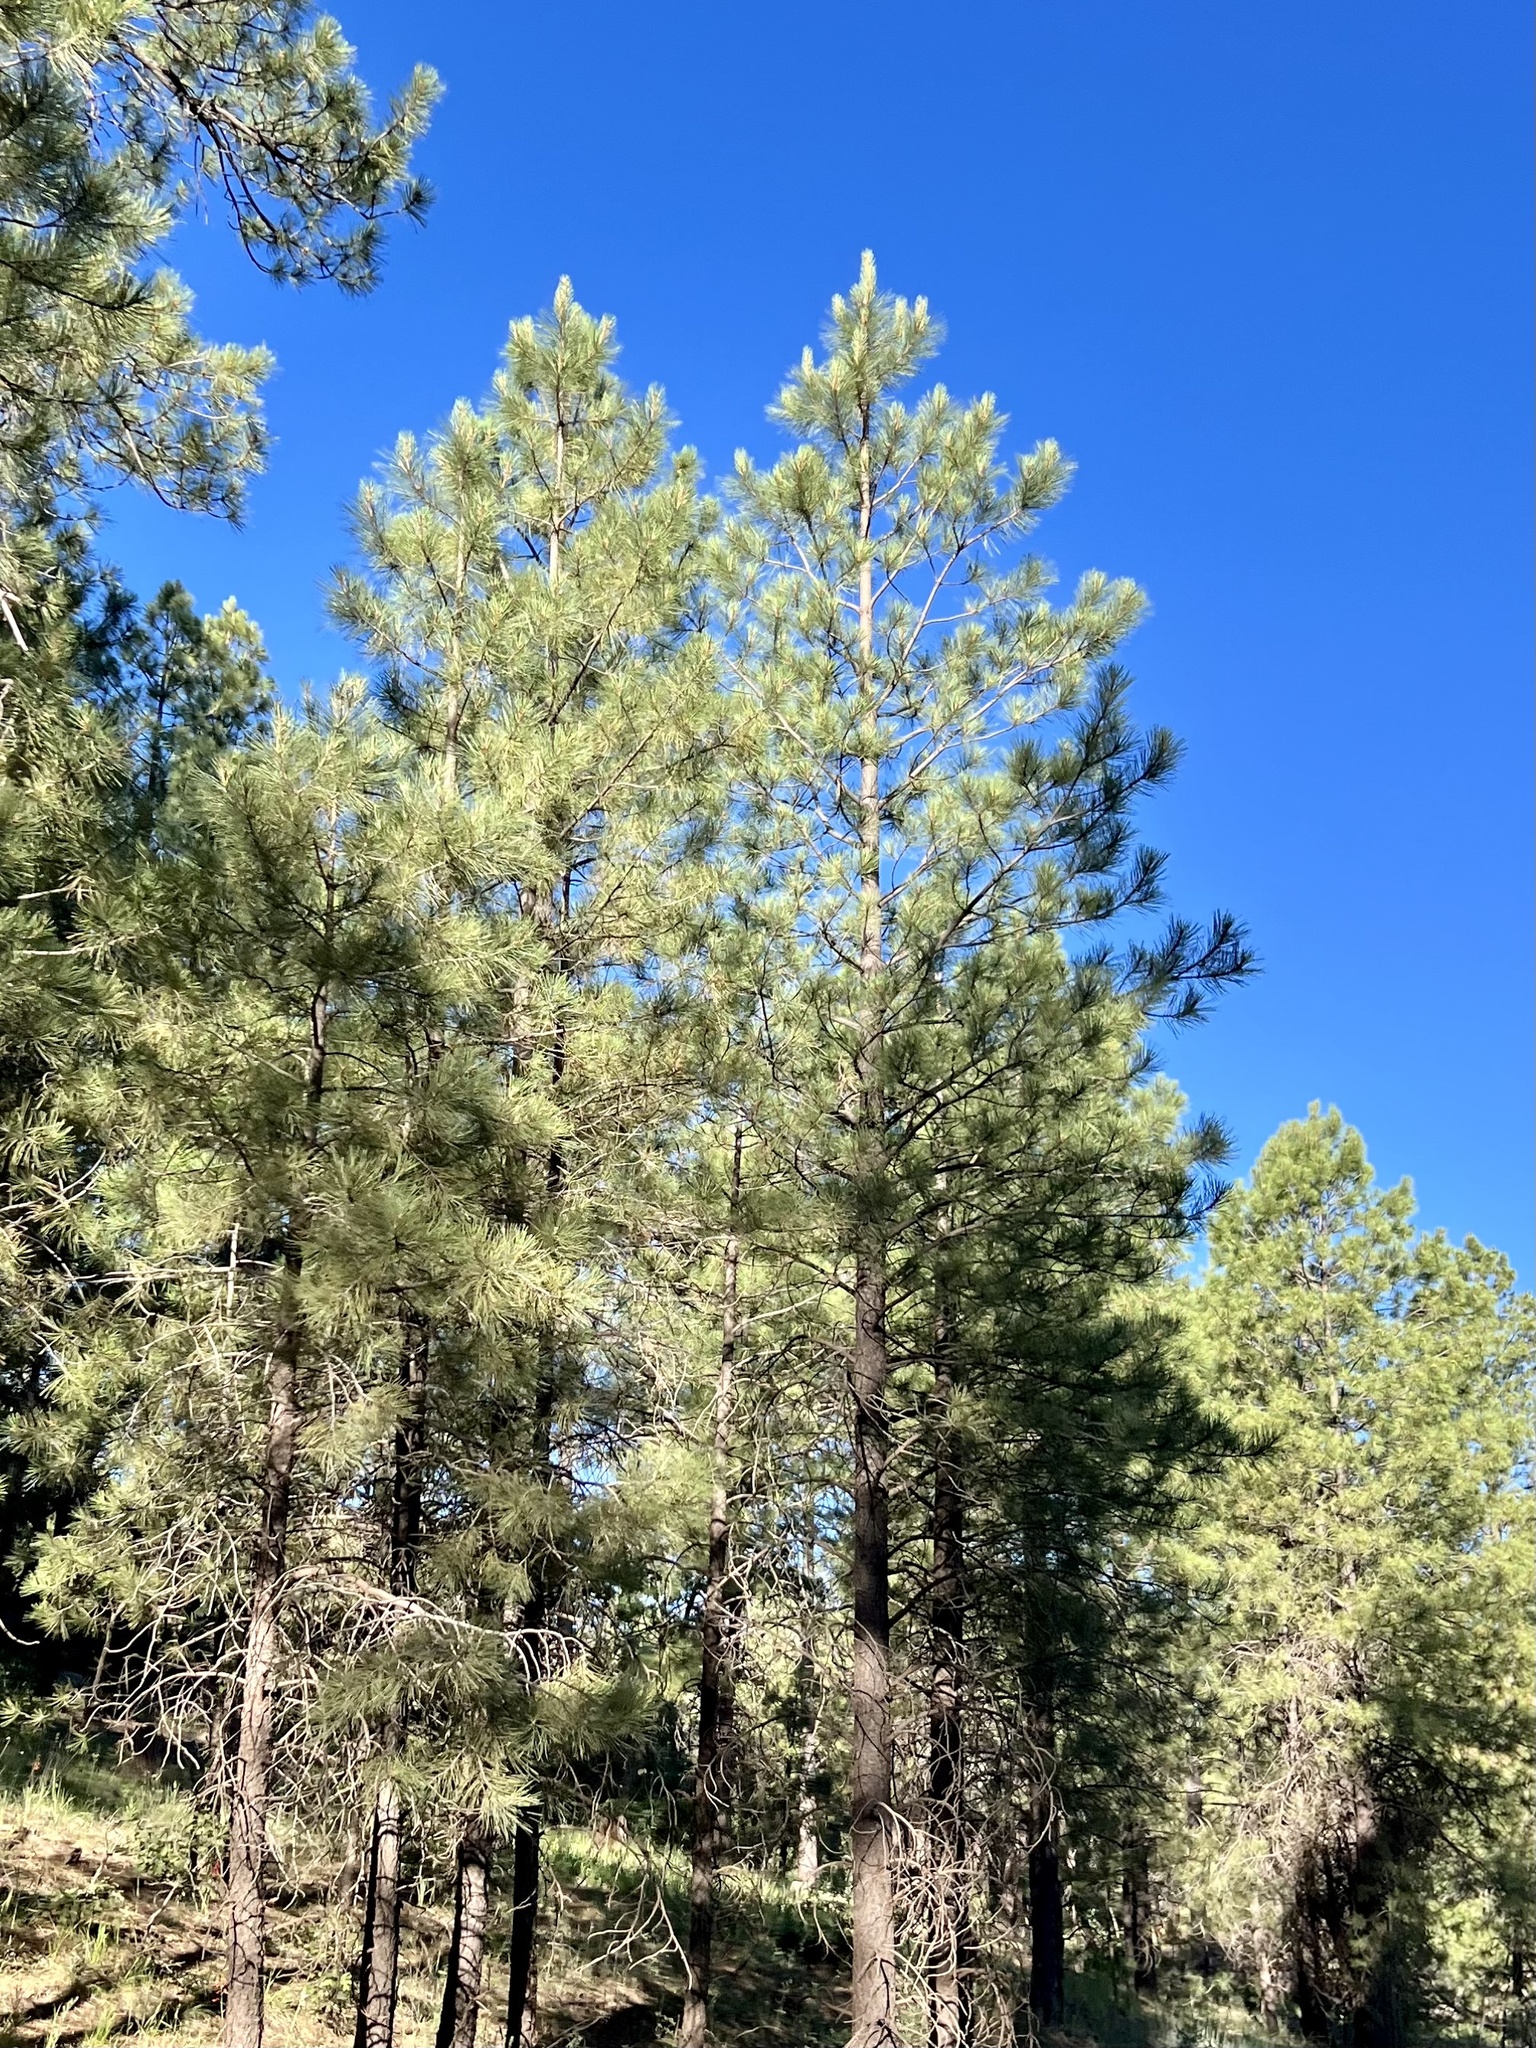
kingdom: Plantae
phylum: Tracheophyta
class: Pinopsida
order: Pinales
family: Pinaceae
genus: Pinus
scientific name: Pinus ponderosa
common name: Western yellow-pine
